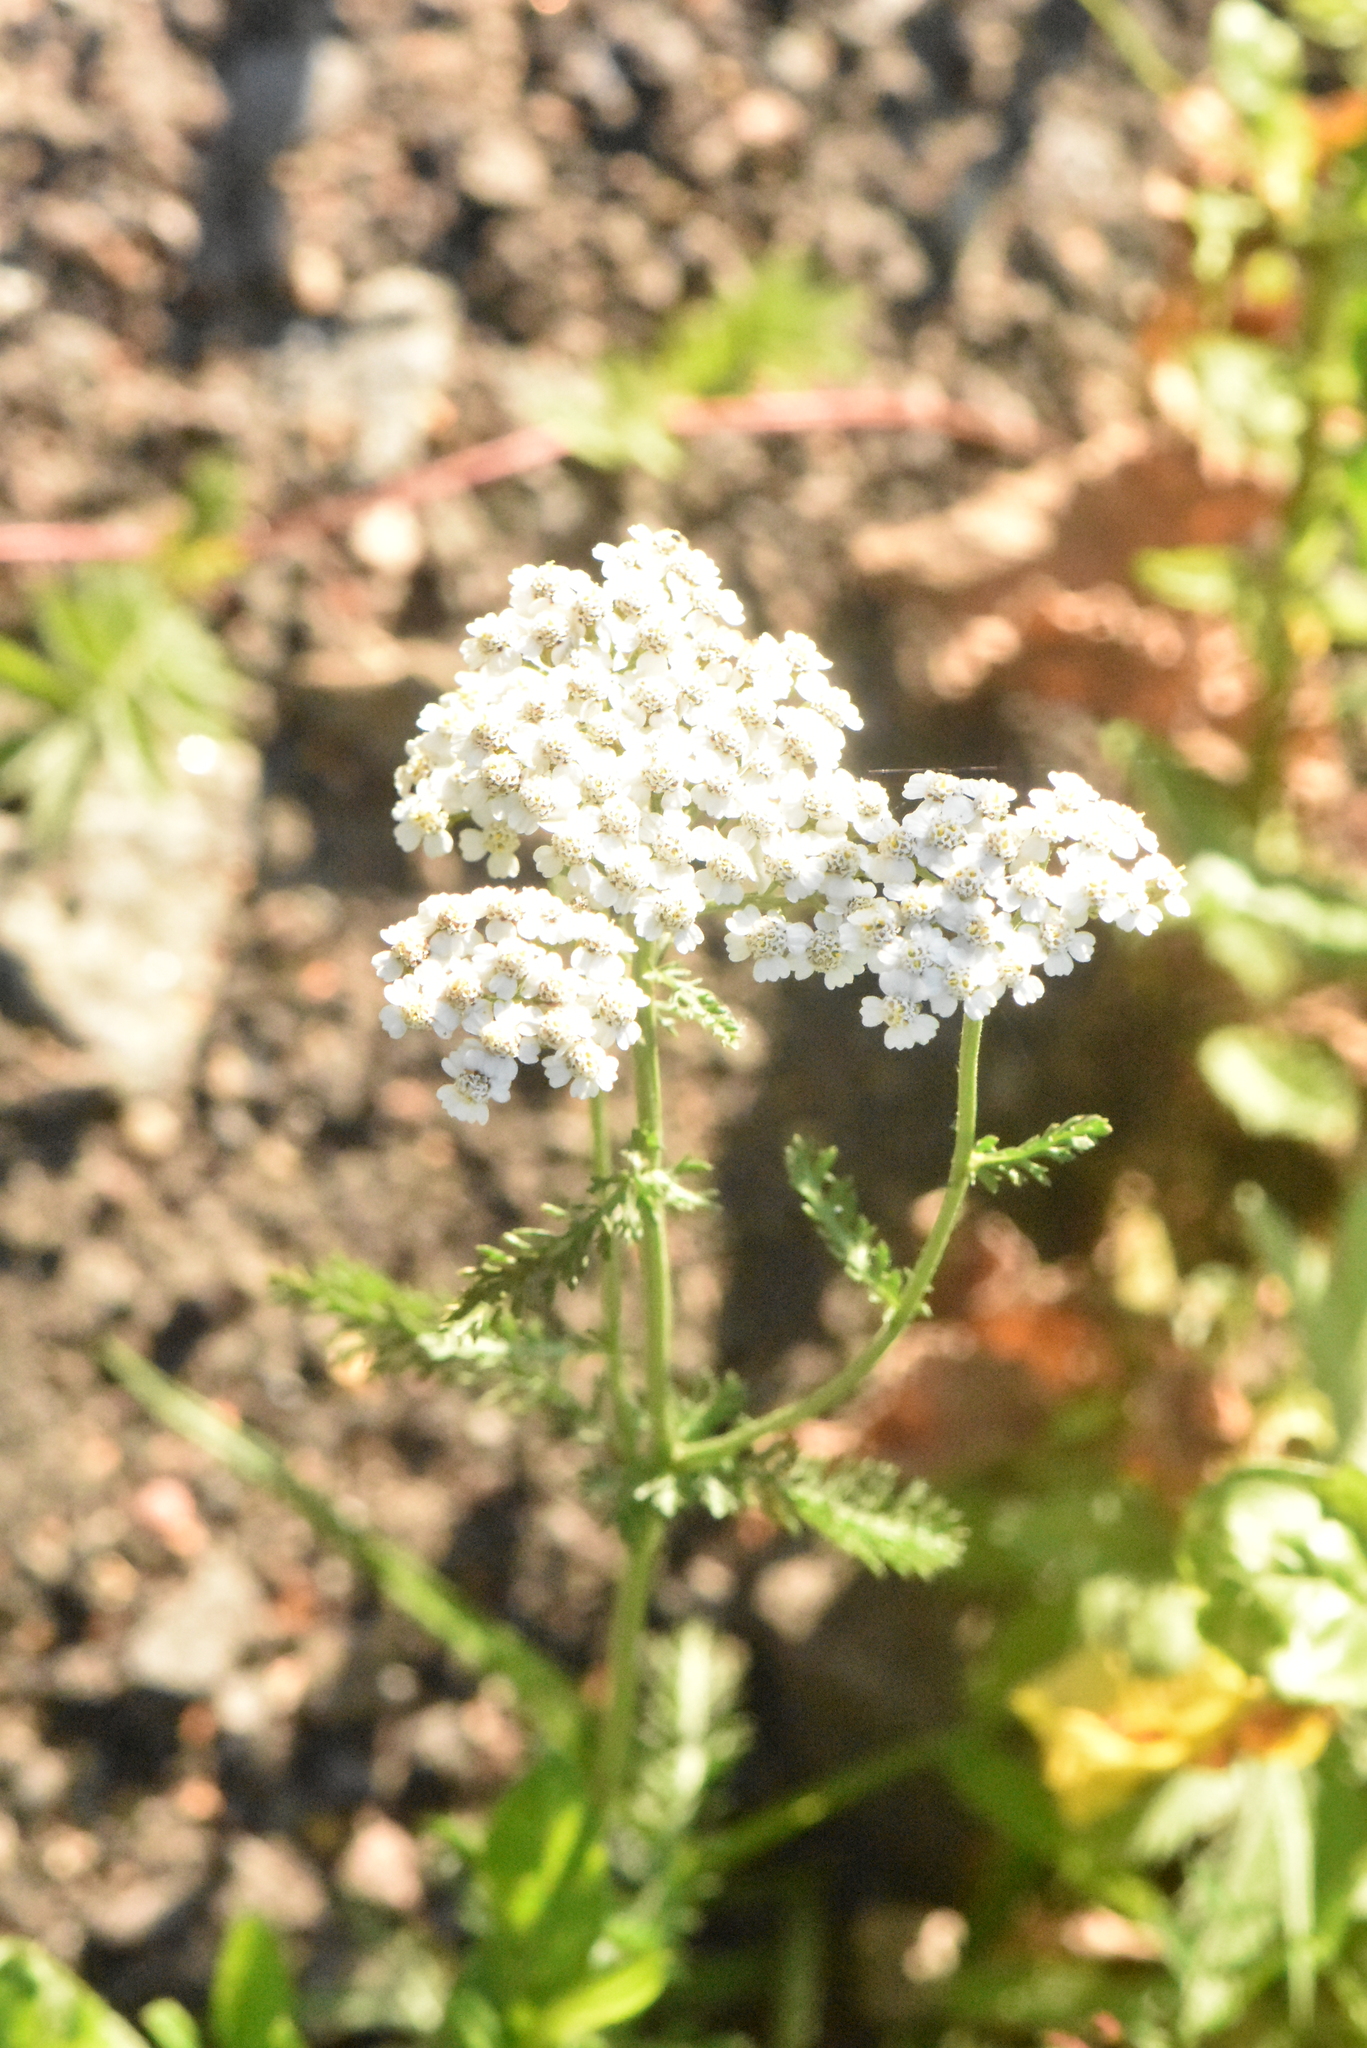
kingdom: Plantae
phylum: Tracheophyta
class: Magnoliopsida
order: Asterales
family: Asteraceae
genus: Achillea
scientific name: Achillea millefolium
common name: Yarrow
